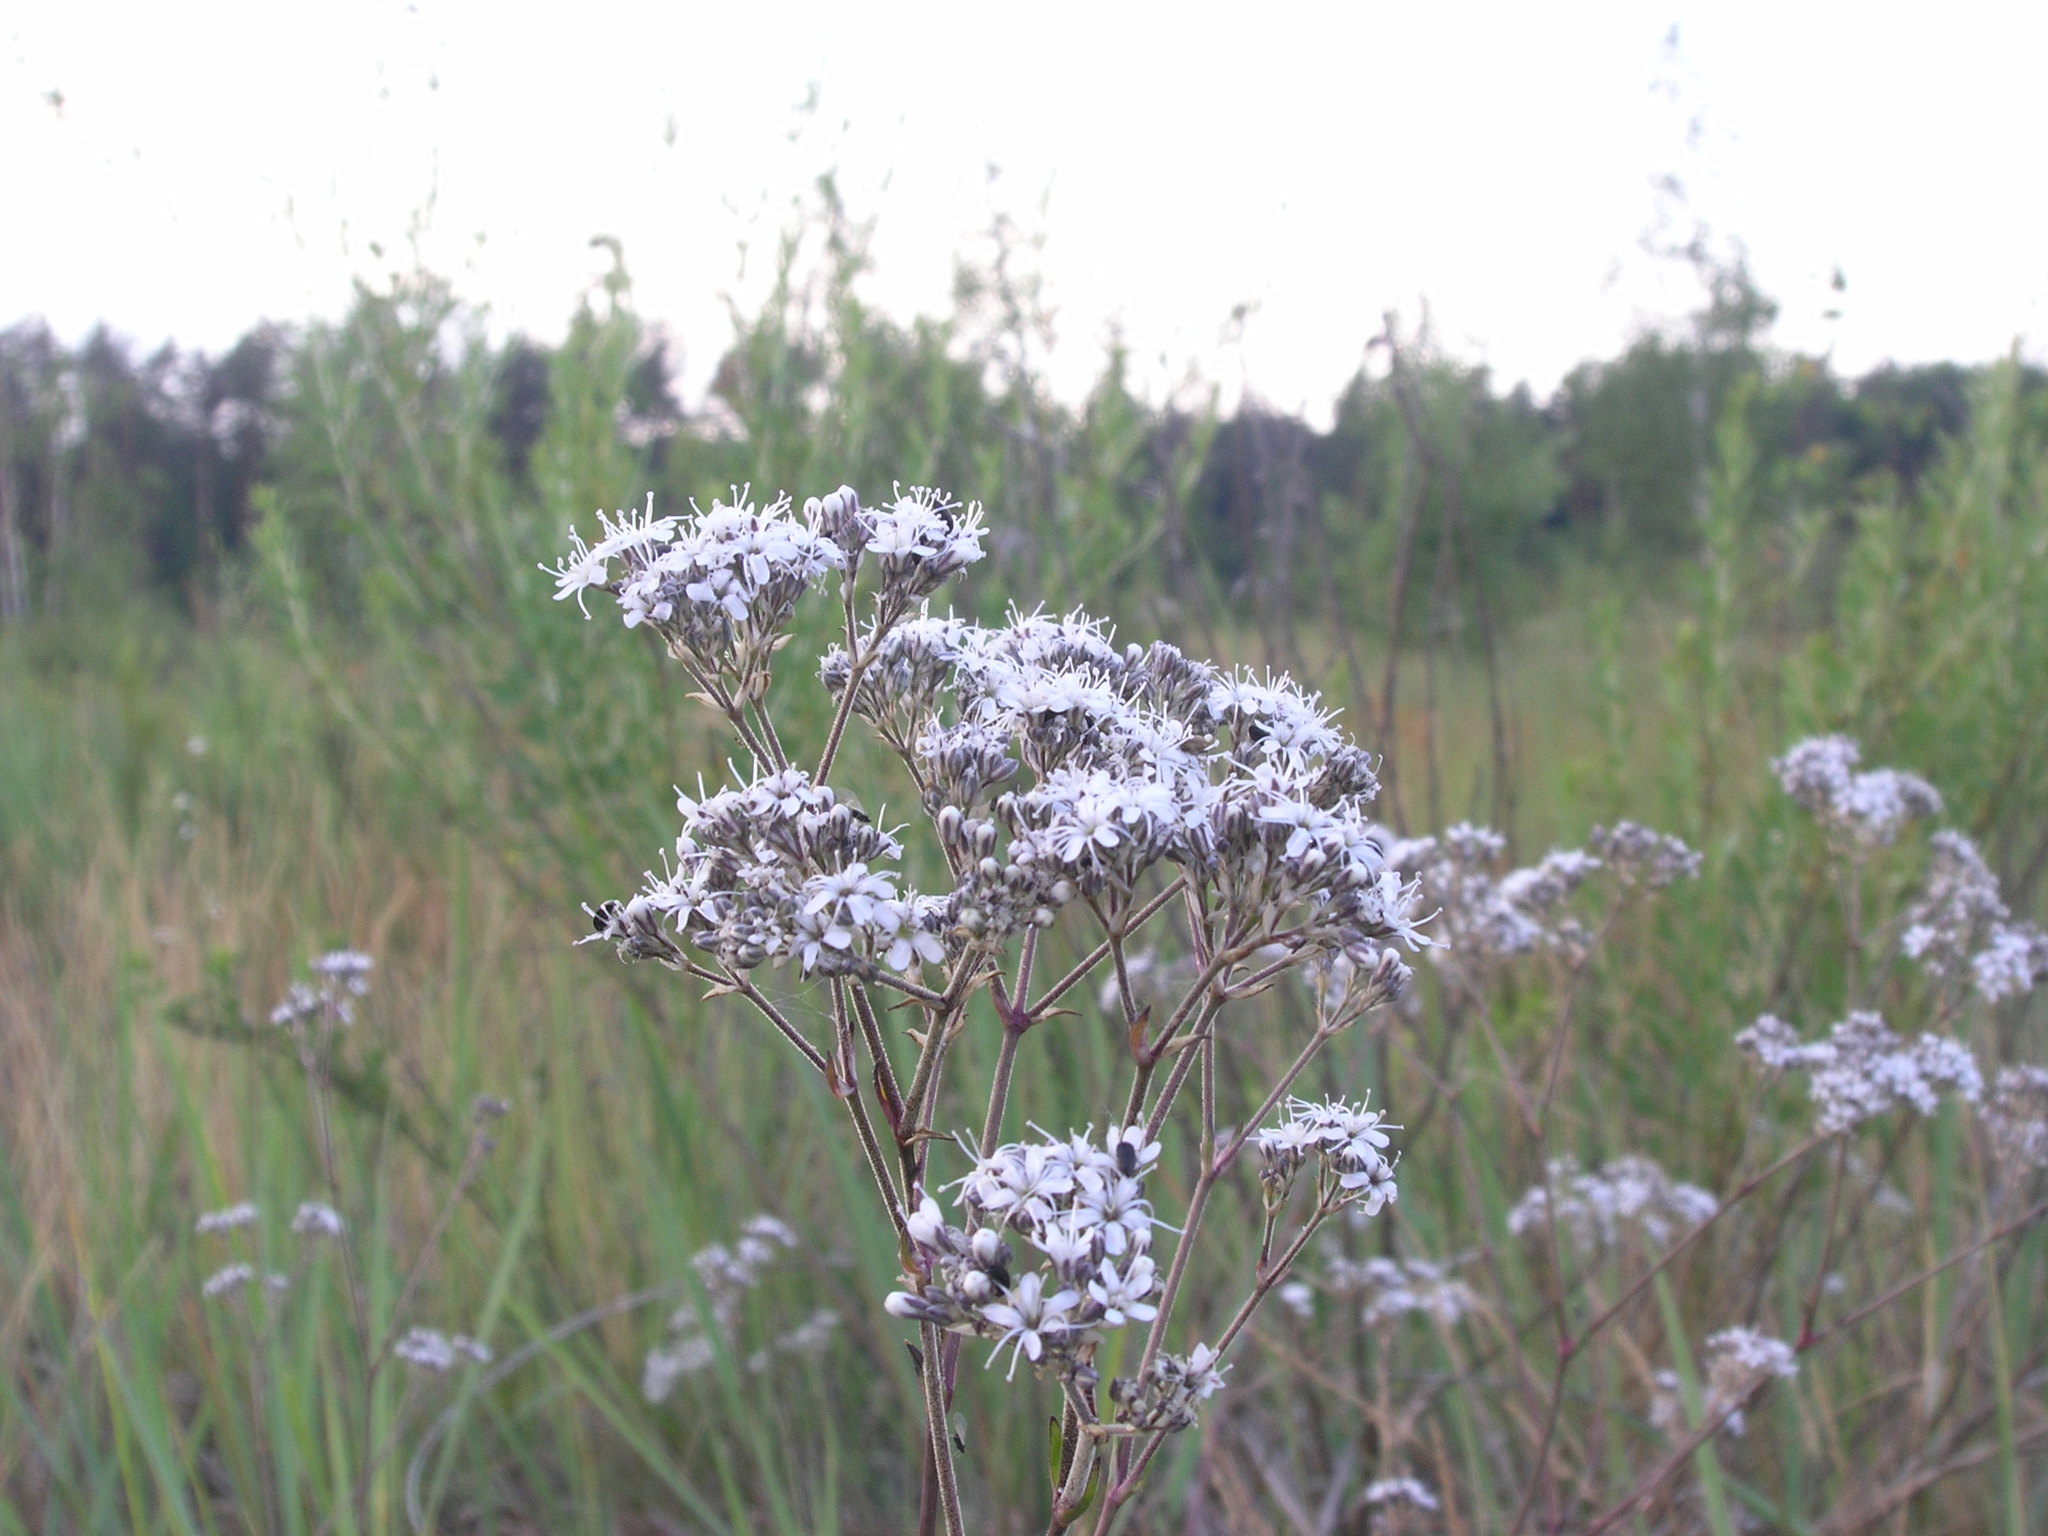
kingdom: Plantae
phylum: Tracheophyta
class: Magnoliopsida
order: Caryophyllales
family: Caryophyllaceae
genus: Gypsophila
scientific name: Gypsophila fastigiata
